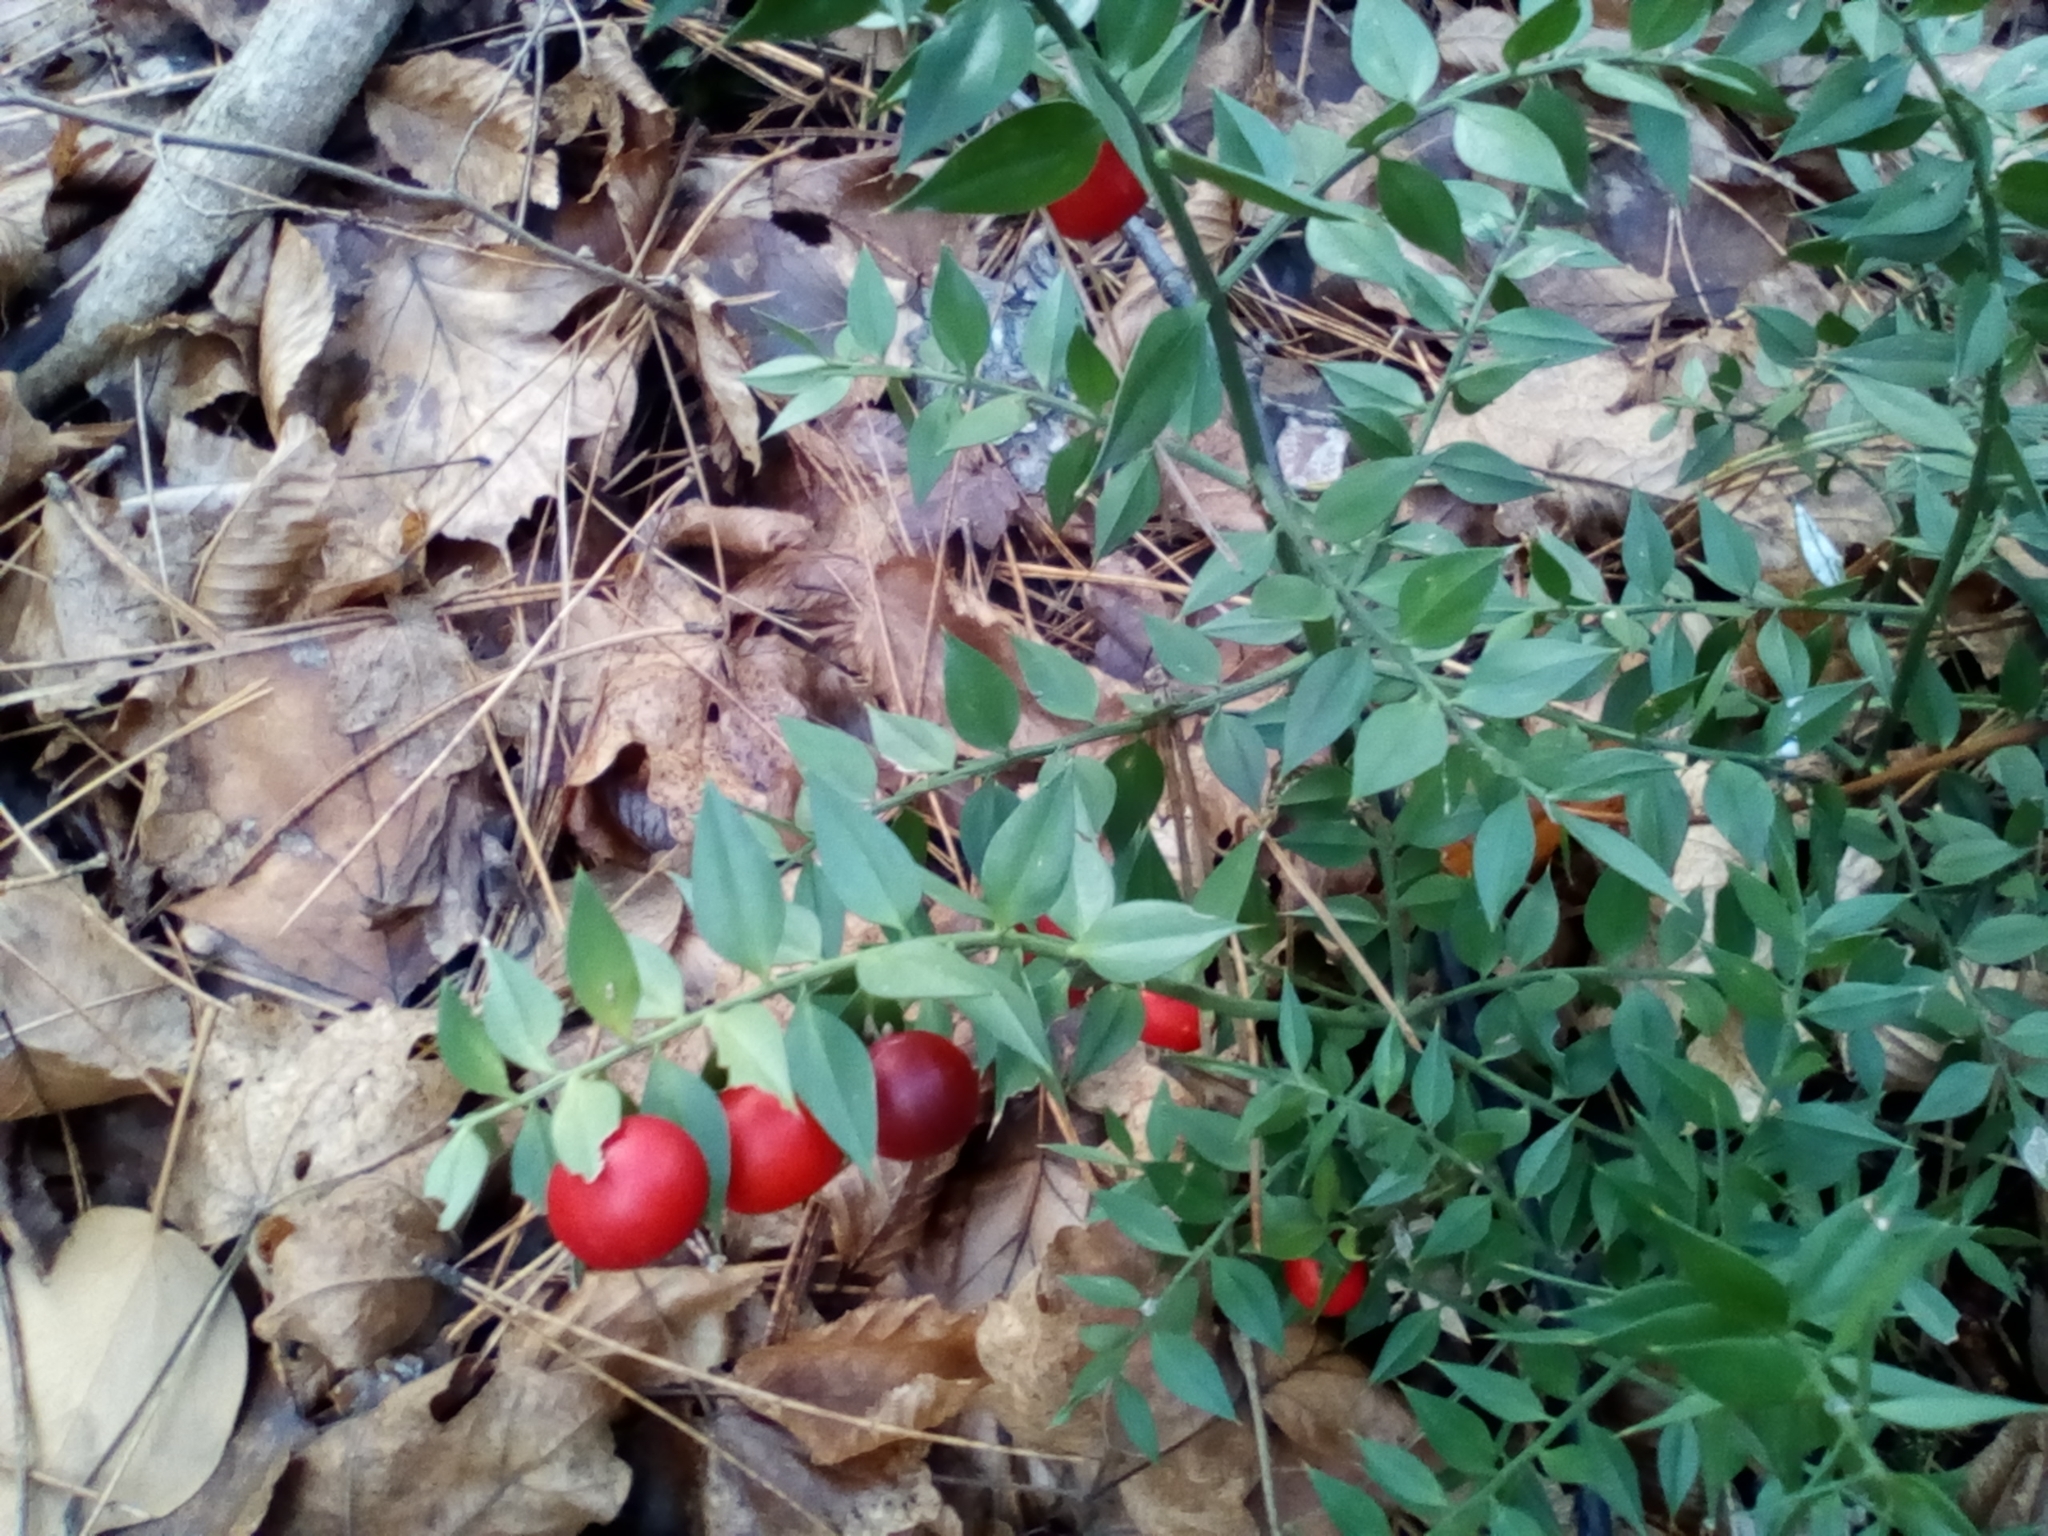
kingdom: Plantae
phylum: Tracheophyta
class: Liliopsida
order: Asparagales
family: Asparagaceae
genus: Ruscus
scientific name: Ruscus aculeatus
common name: Butcher's-broom
